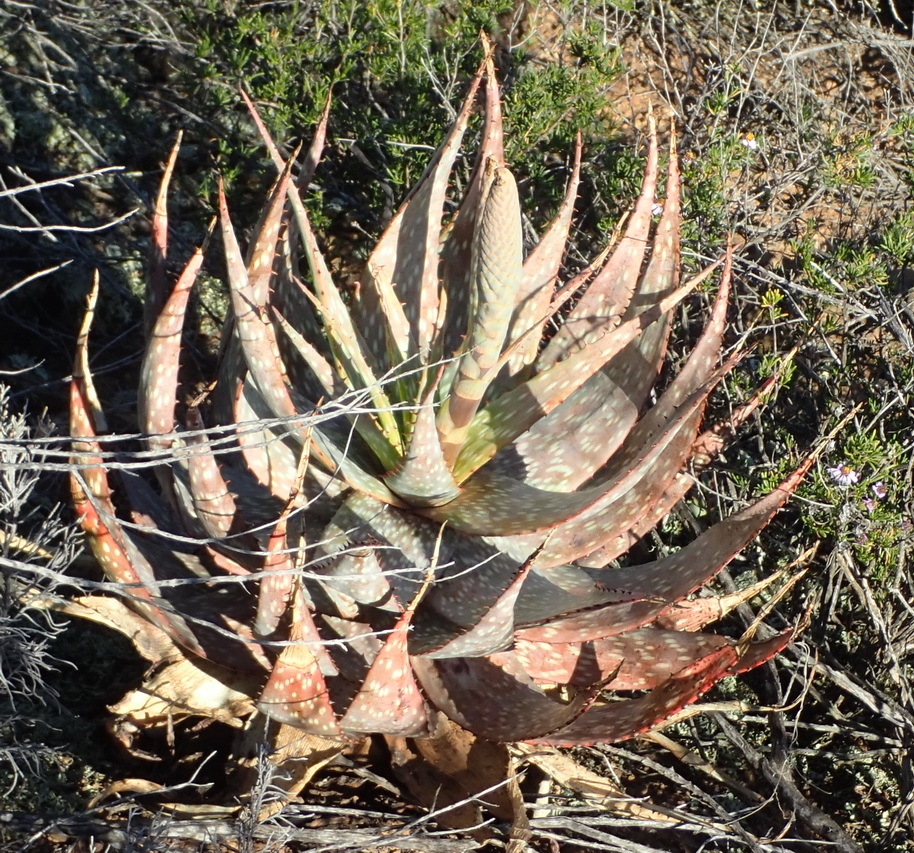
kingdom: Plantae
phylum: Tracheophyta
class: Liliopsida
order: Asparagales
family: Asphodelaceae
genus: Aloe
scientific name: Aloe microstigma
